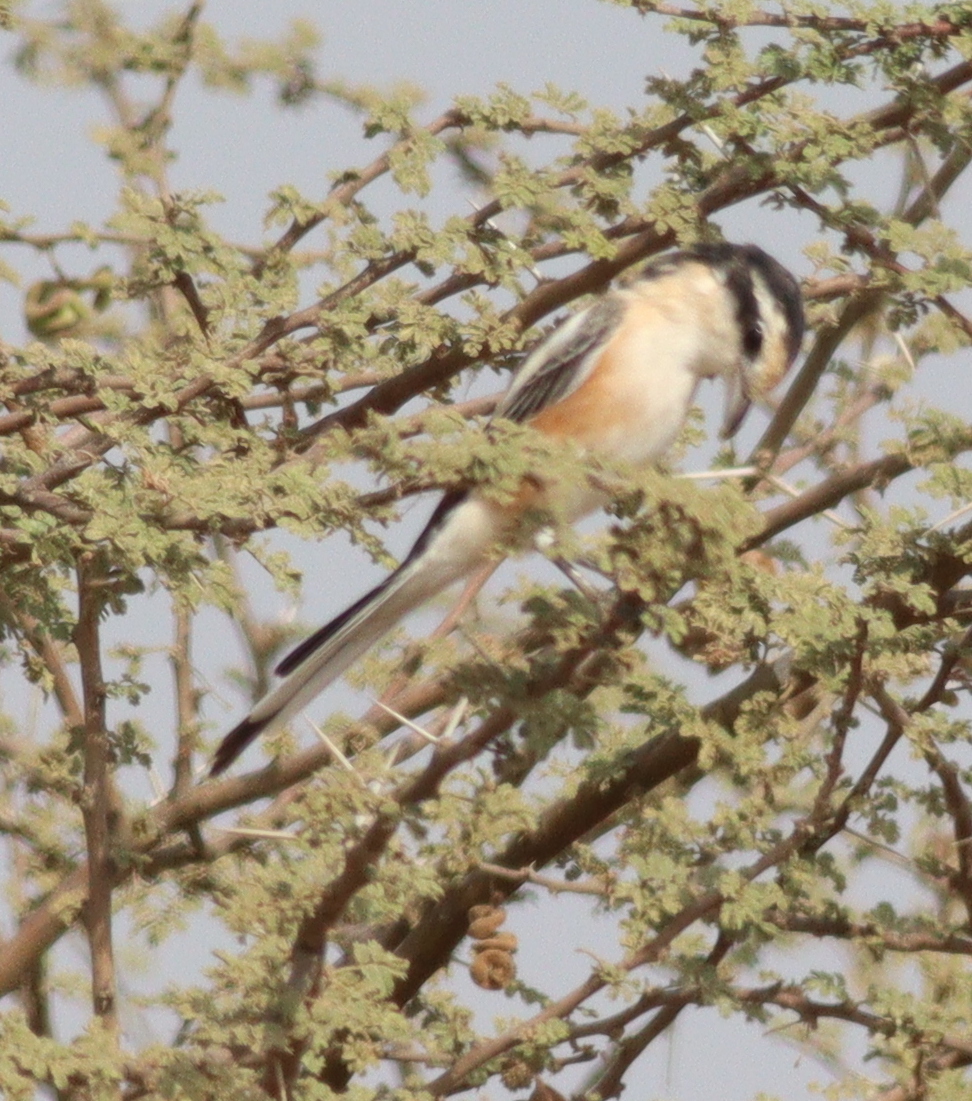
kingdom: Animalia
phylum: Chordata
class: Aves
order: Passeriformes
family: Laniidae
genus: Lanius
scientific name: Lanius nubicus
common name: Masked shrike
